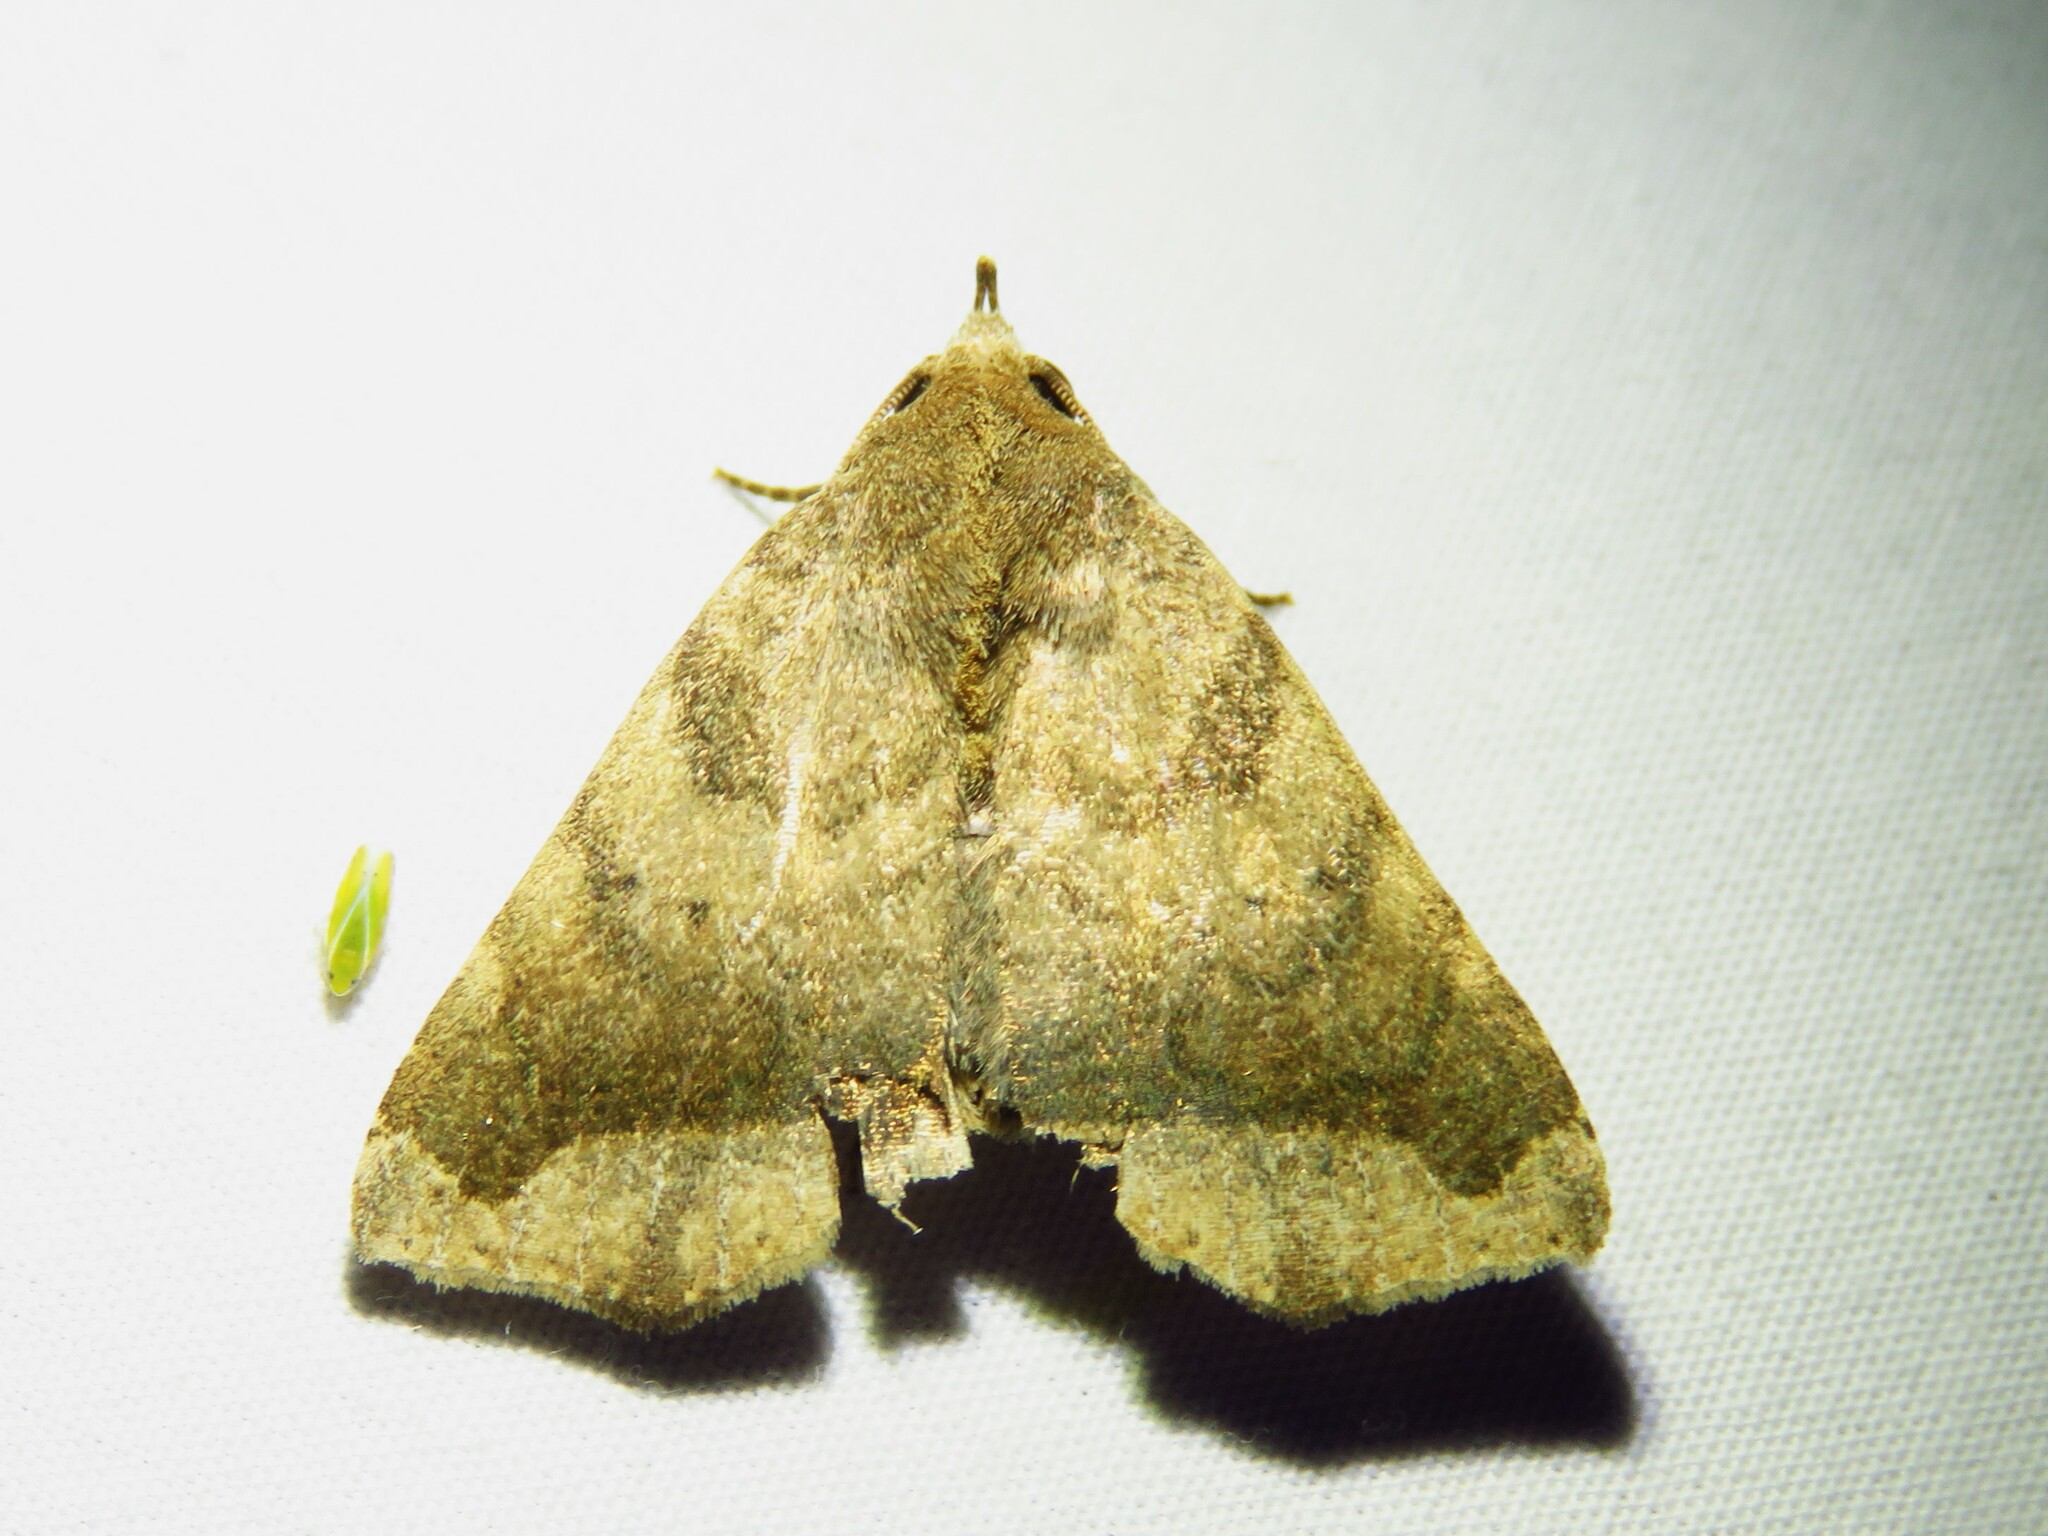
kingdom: Animalia
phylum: Arthropoda
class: Insecta
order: Lepidoptera
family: Erebidae
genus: Bendisodes
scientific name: Bendisodes aeolia
